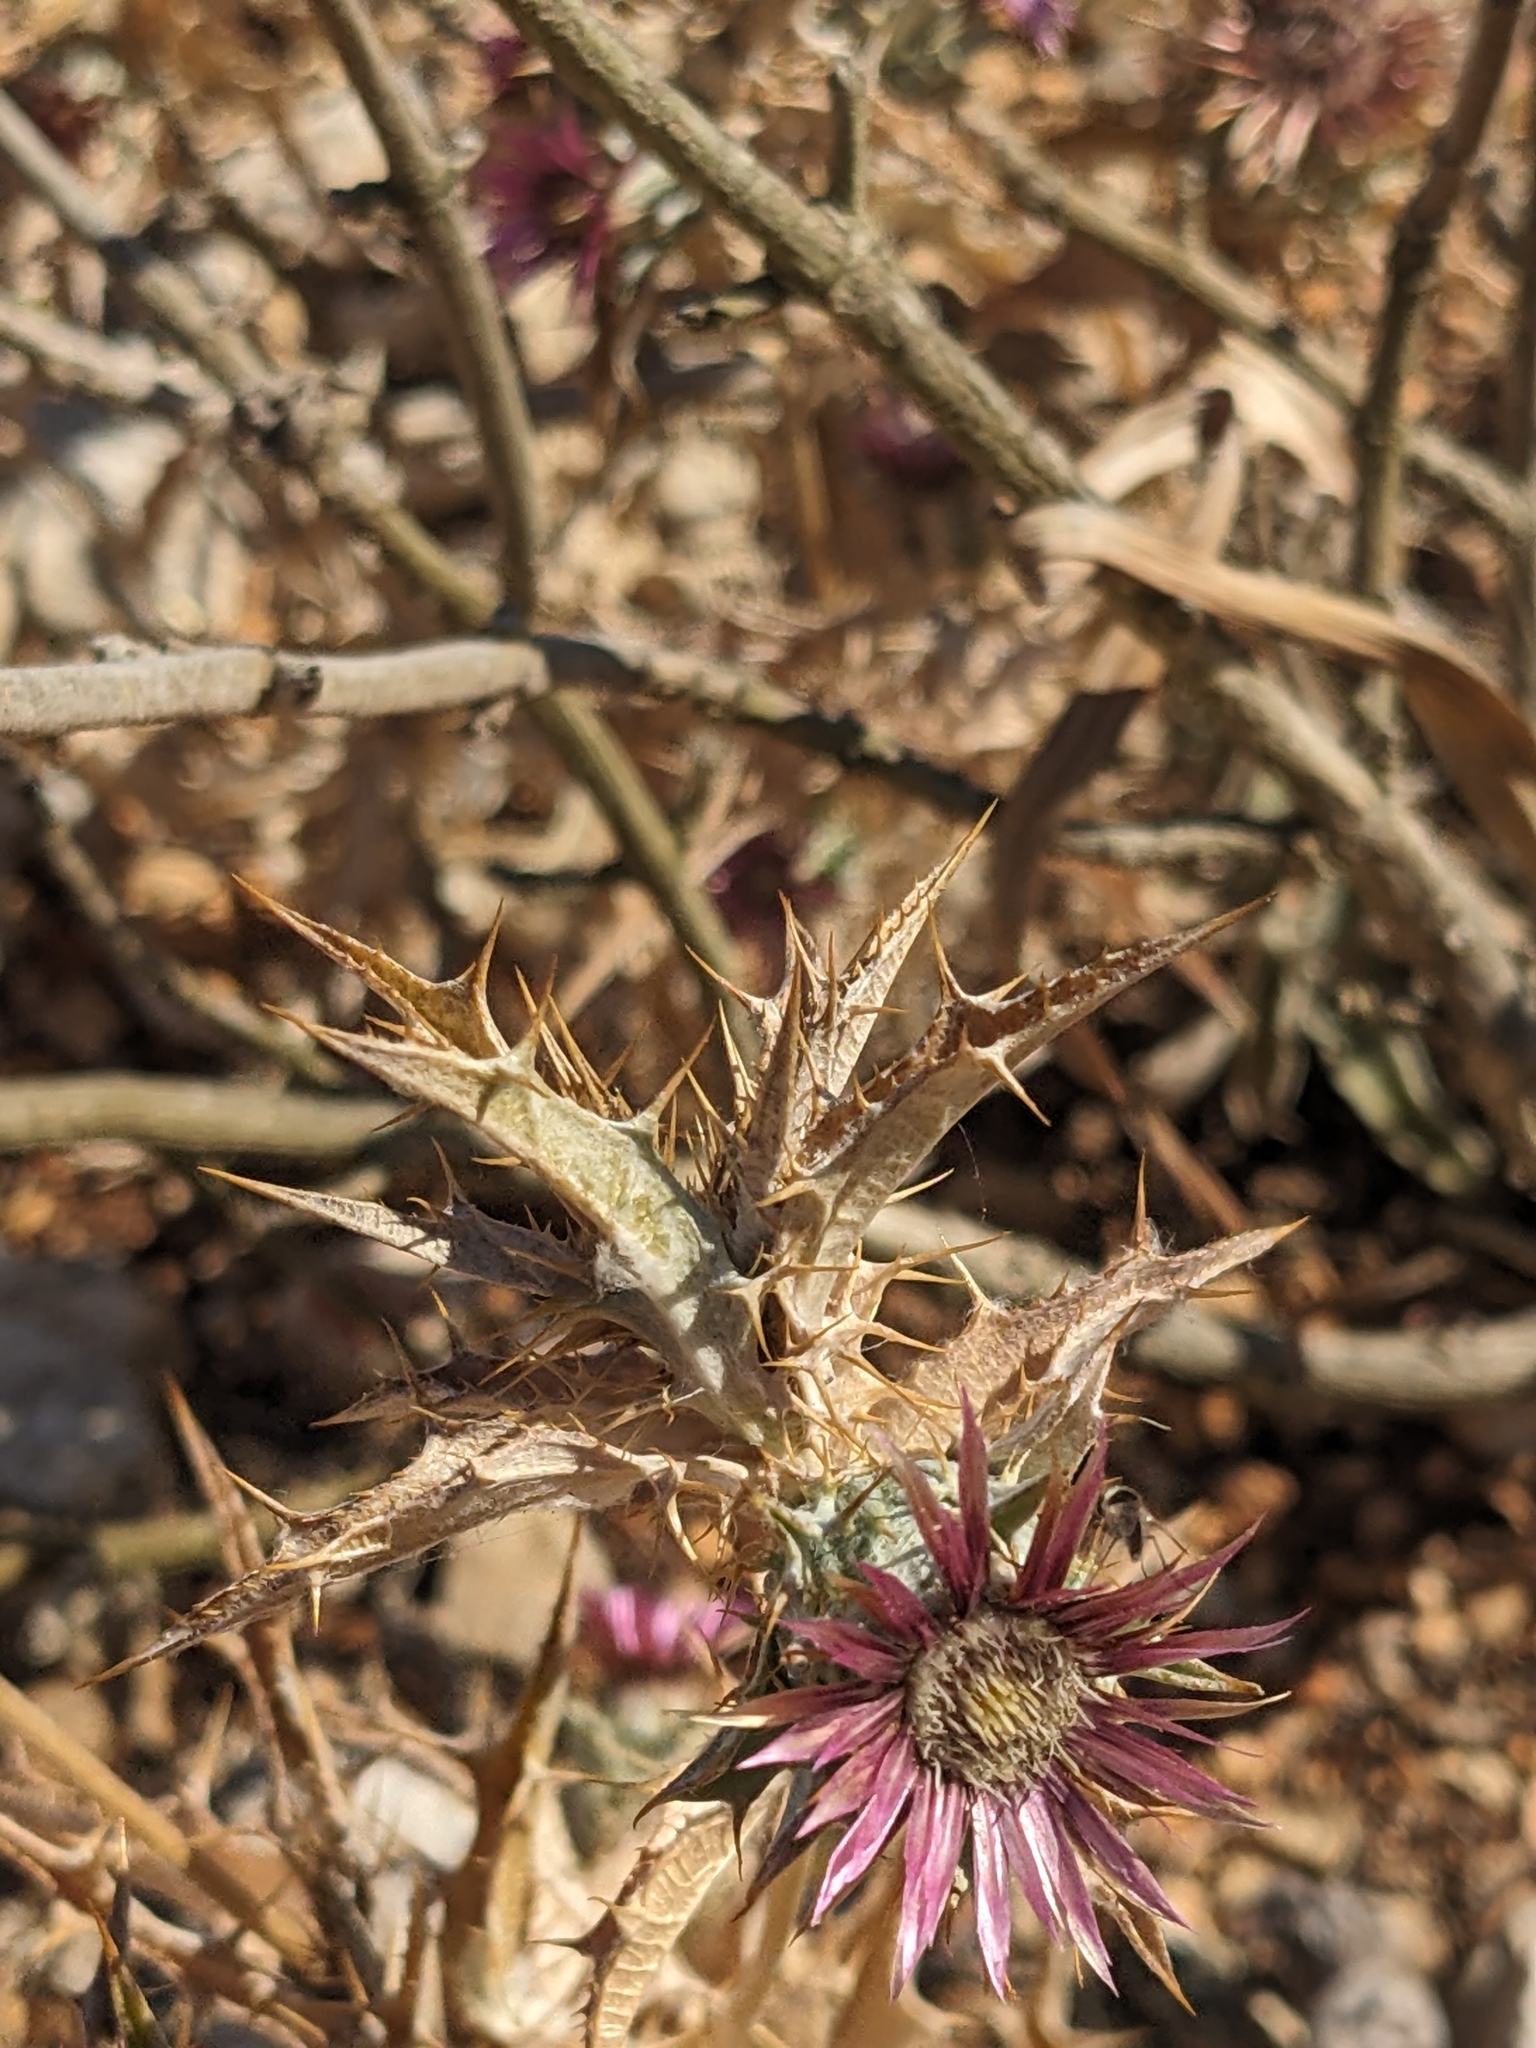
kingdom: Plantae
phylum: Tracheophyta
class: Magnoliopsida
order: Asterales
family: Asteraceae
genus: Carlina
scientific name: Carlina lanata
